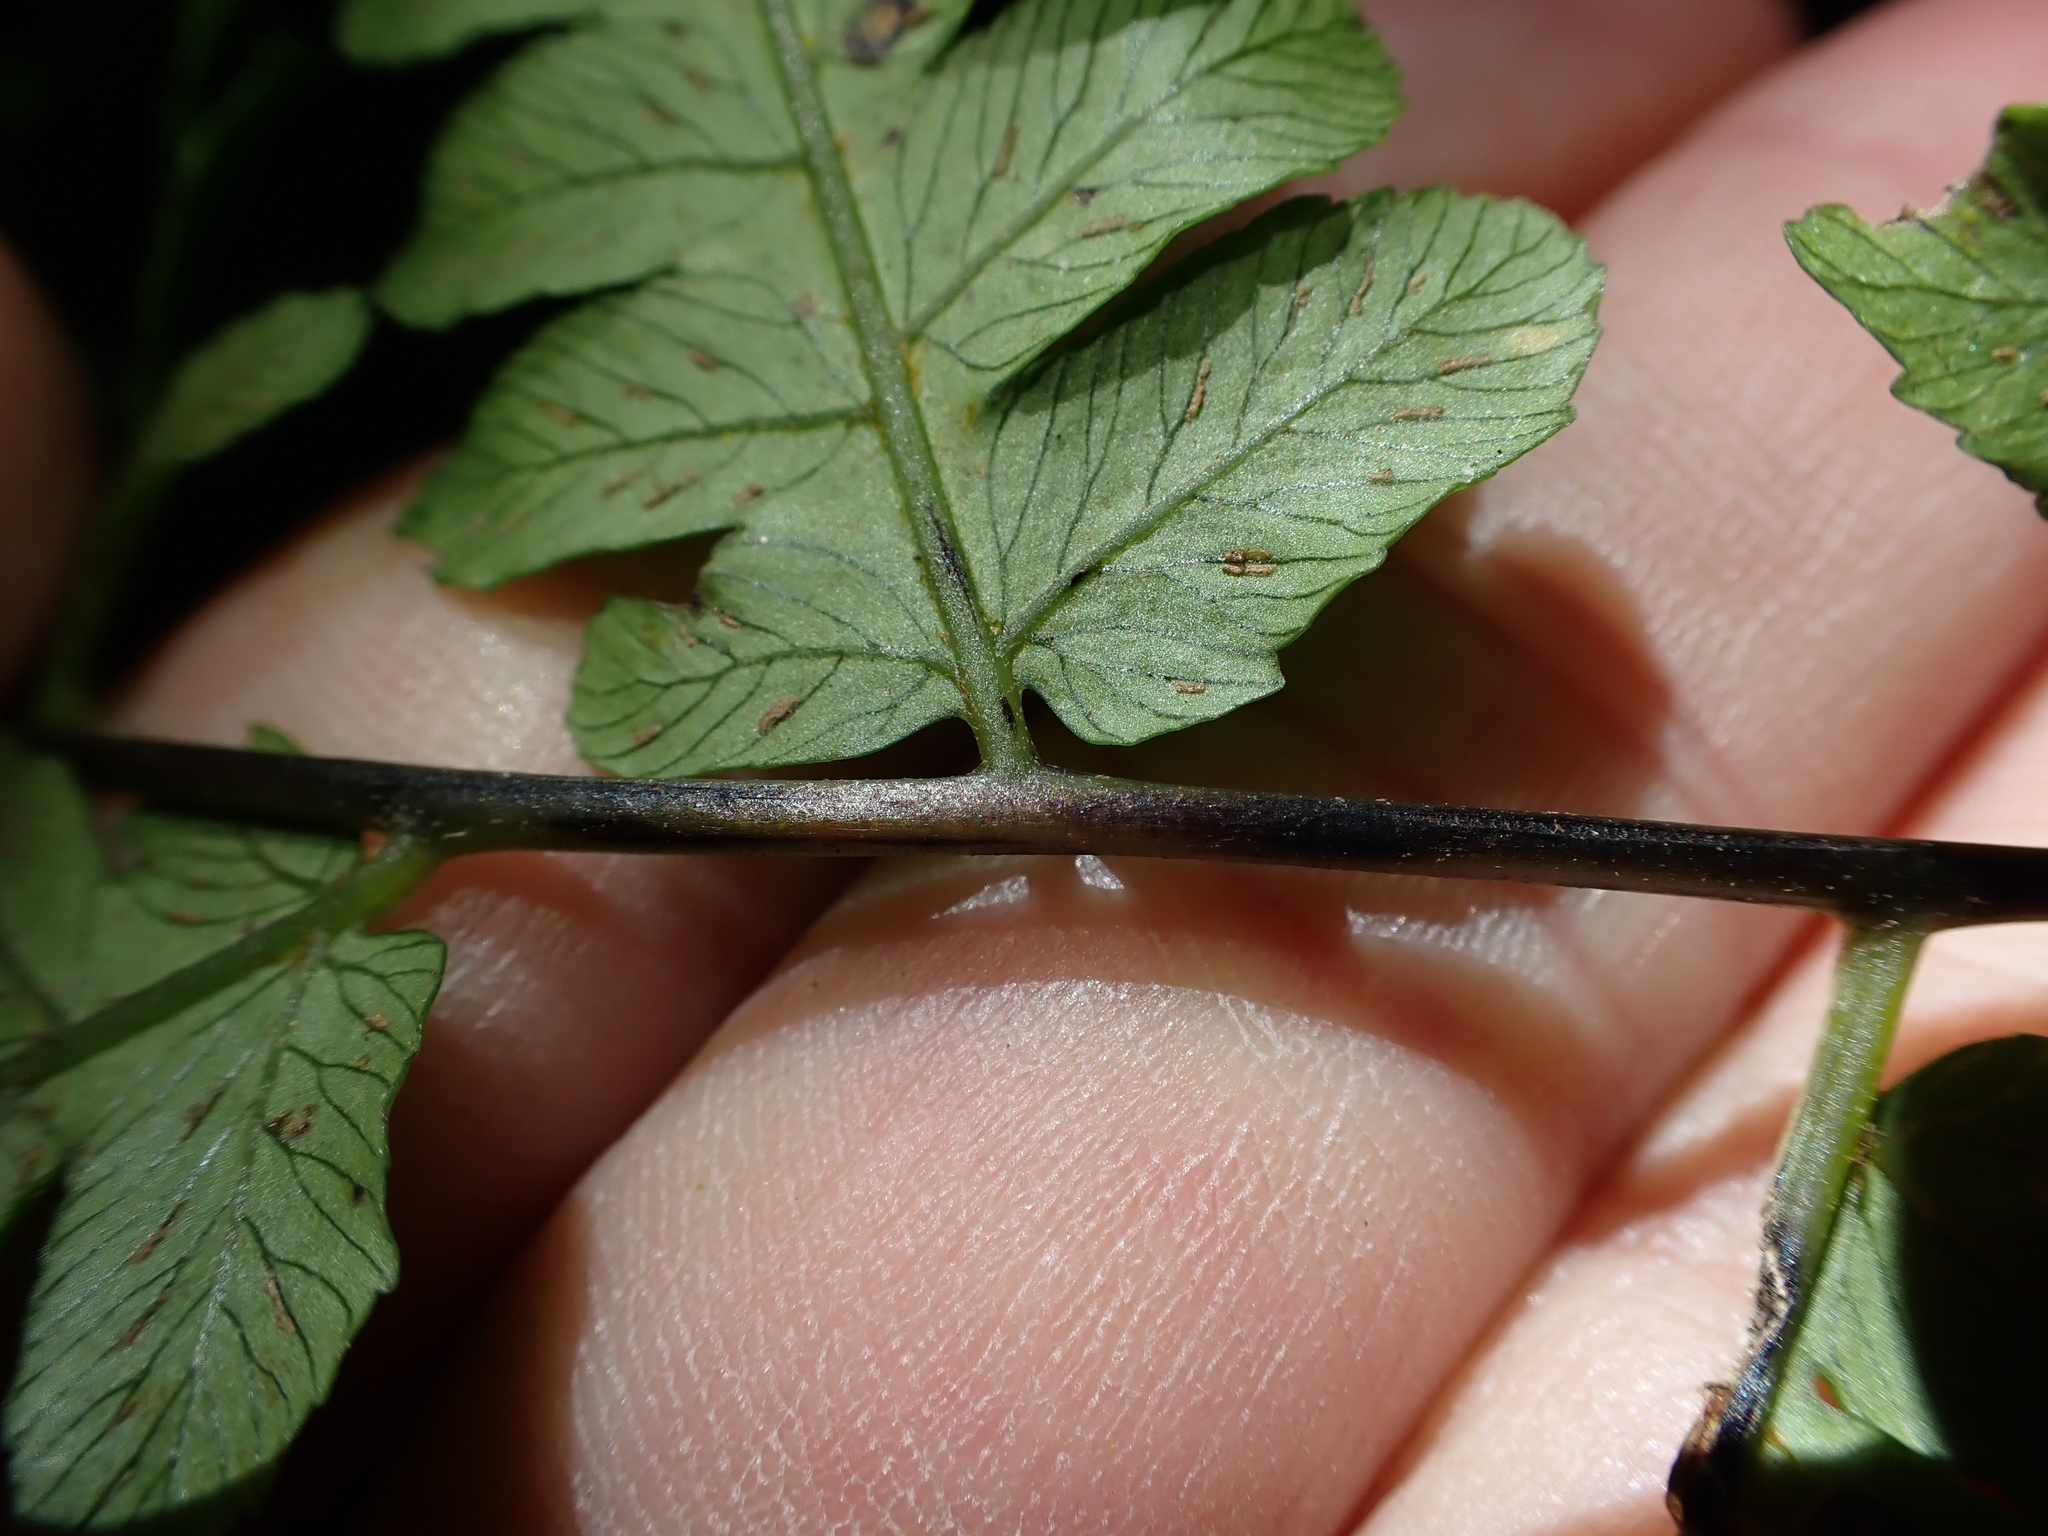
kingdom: Plantae
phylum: Tracheophyta
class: Polypodiopsida
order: Polypodiales
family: Athyriaceae
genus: Diplazium
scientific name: Diplazium virescens
